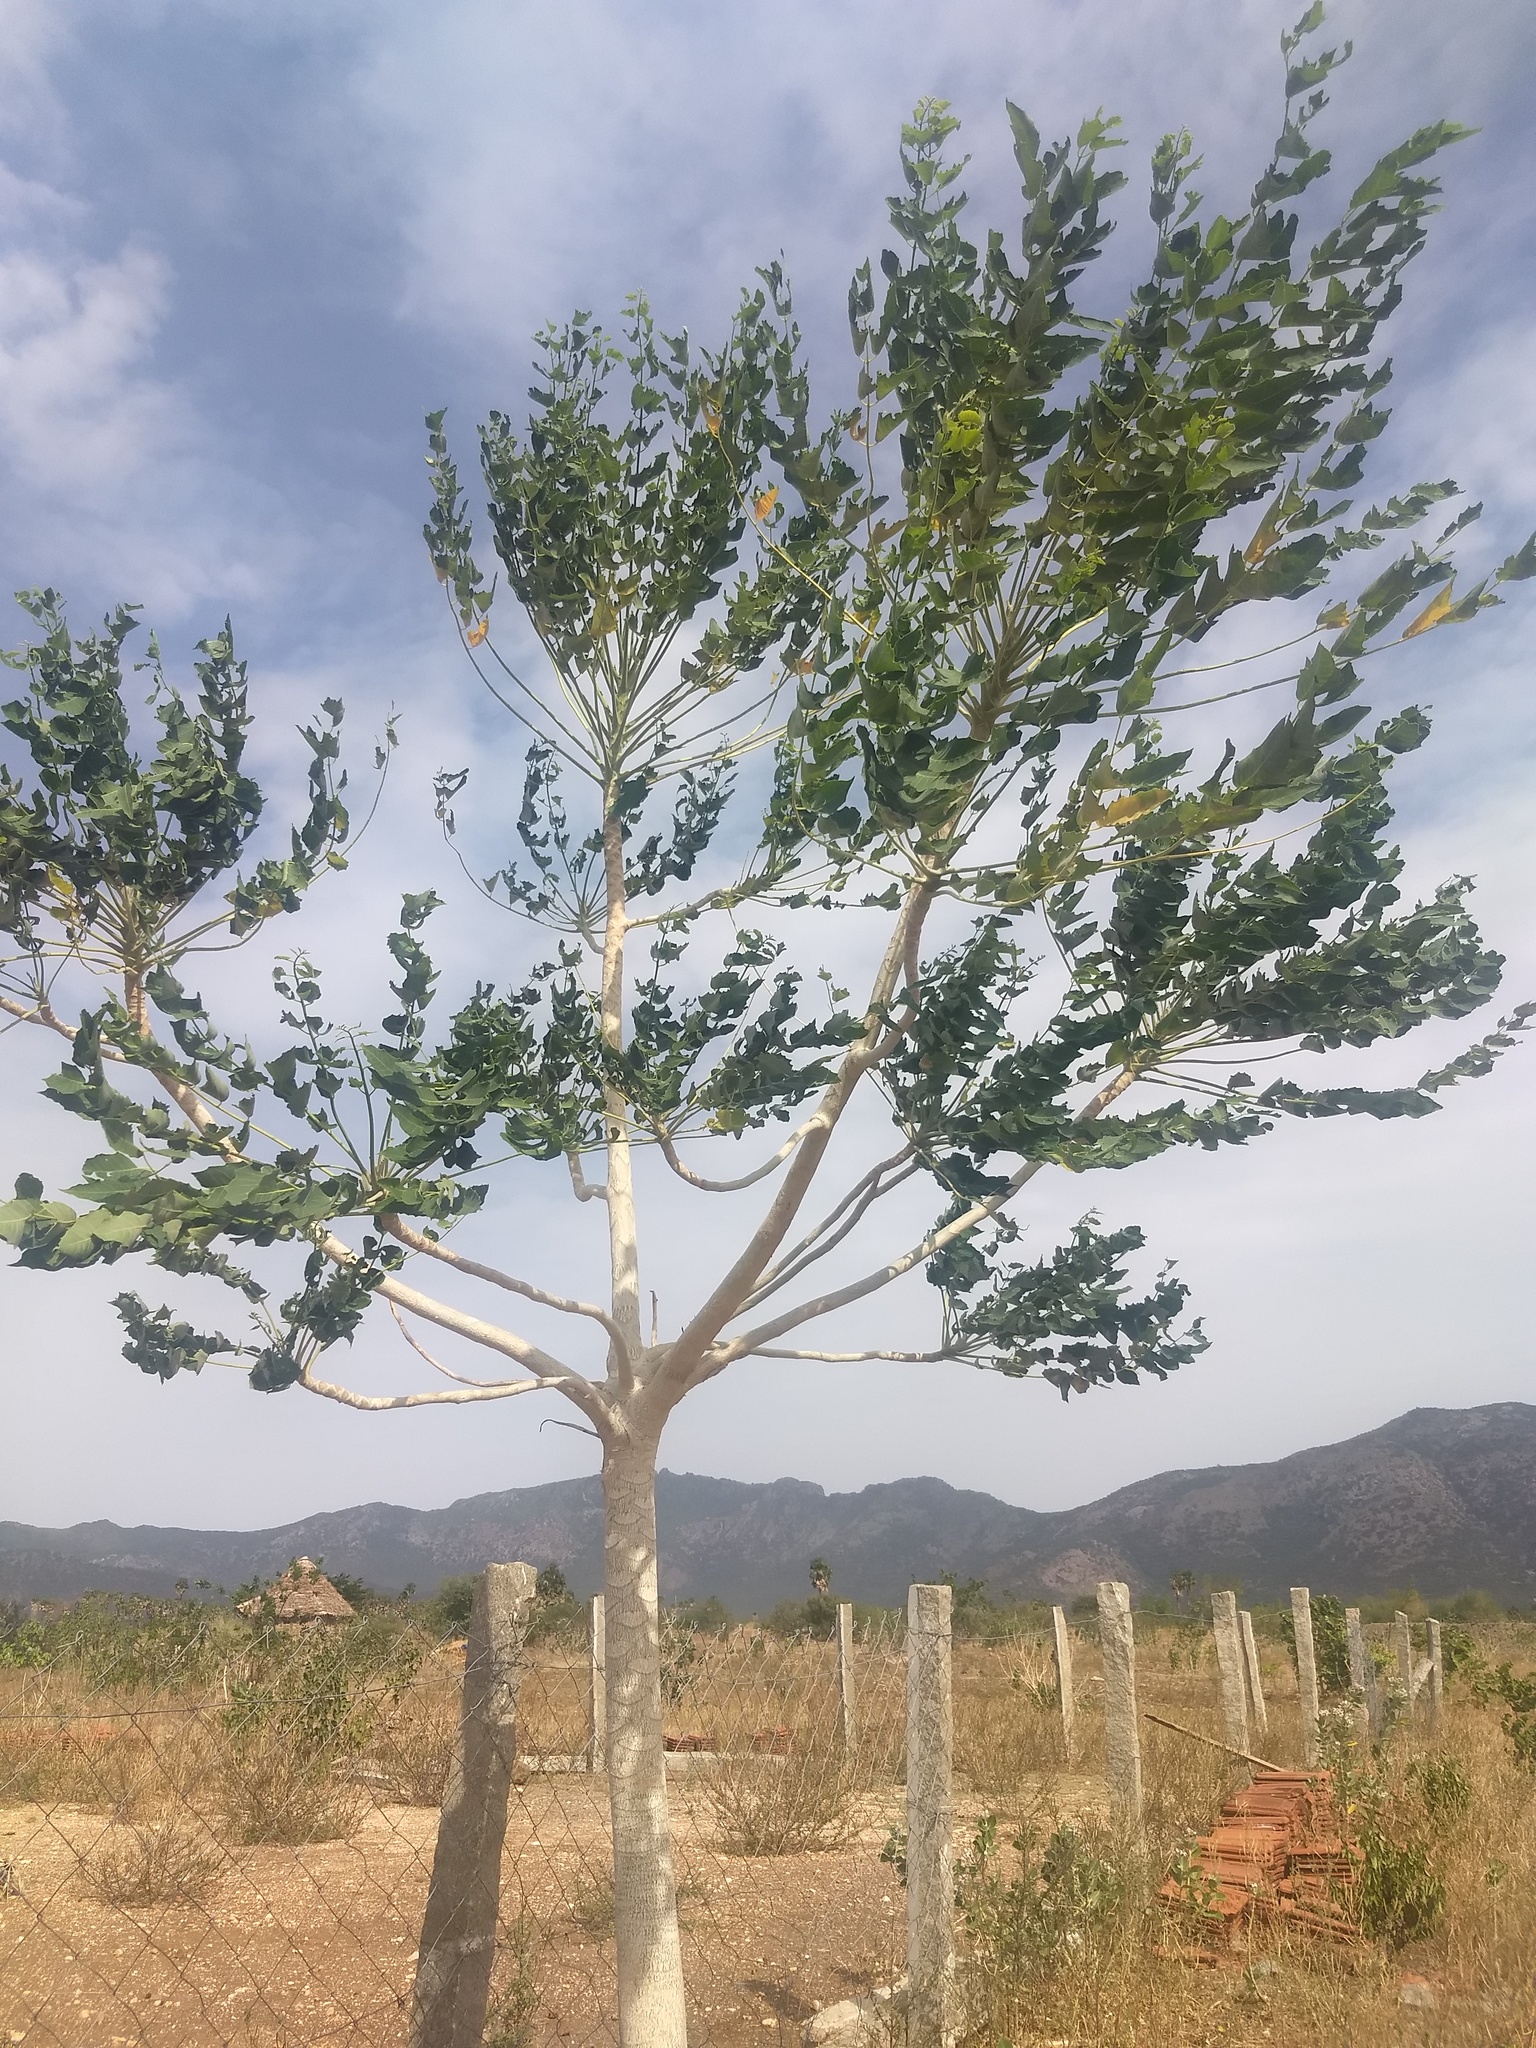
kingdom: Plantae
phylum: Tracheophyta
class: Magnoliopsida
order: Sapindales
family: Simaroubaceae
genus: Ailanthus
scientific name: Ailanthus excelsa
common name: Indian tree-of-heaven
